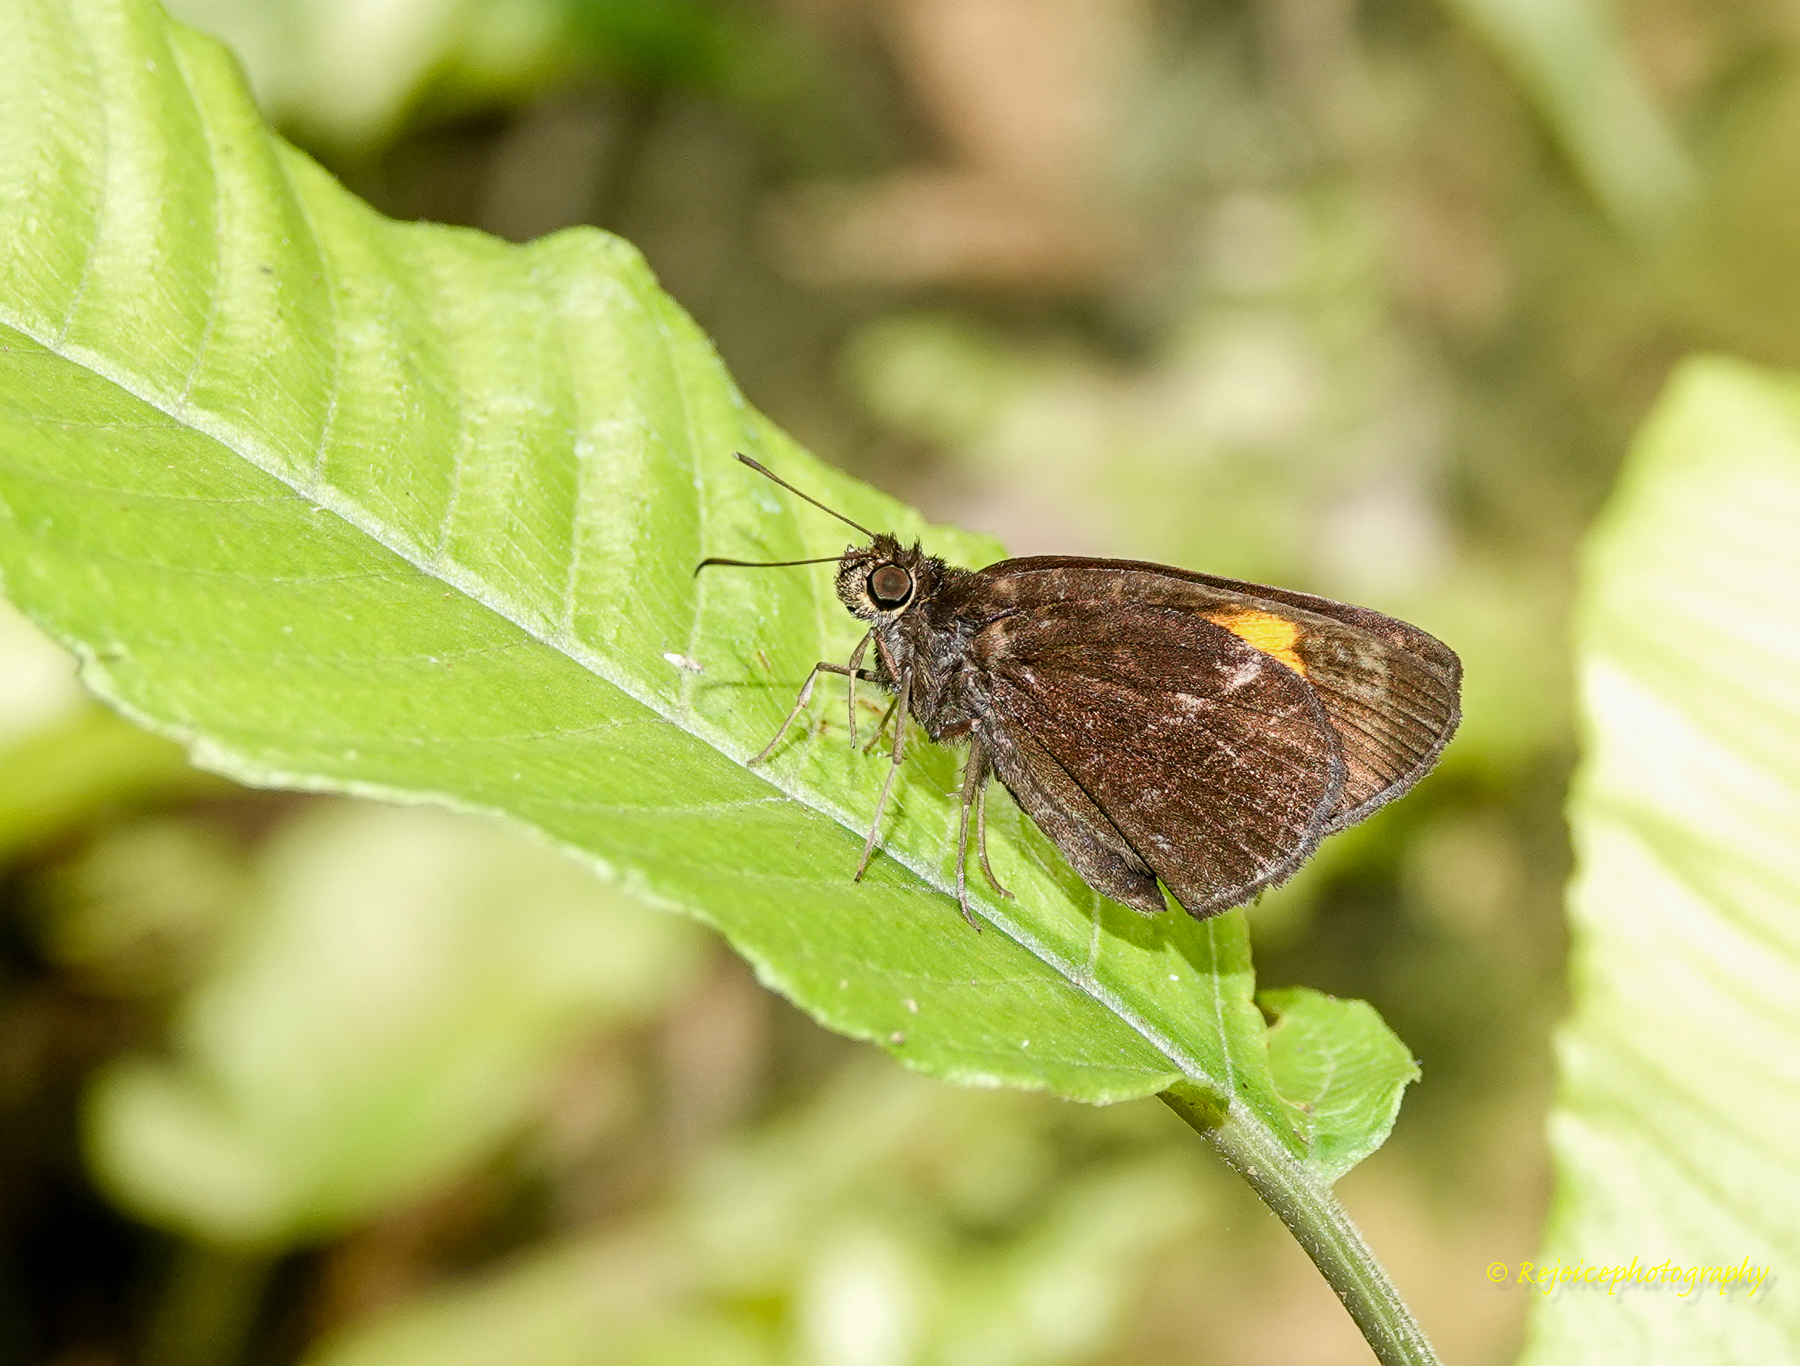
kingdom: Animalia
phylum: Arthropoda
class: Insecta
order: Lepidoptera
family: Hesperiidae
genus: Koruthaialos
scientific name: Koruthaialos sindu
